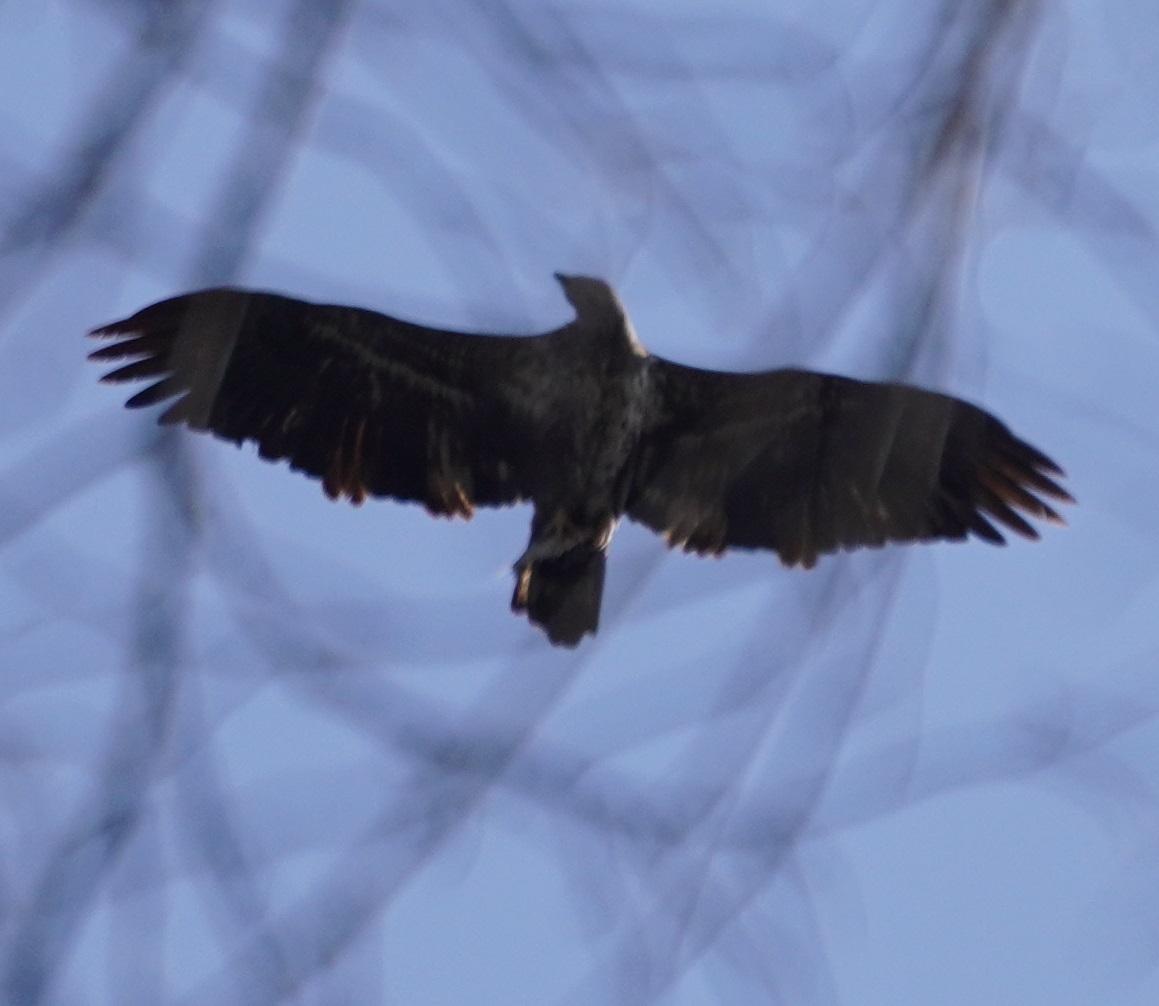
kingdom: Animalia
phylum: Chordata
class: Aves
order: Accipitriformes
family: Accipitridae
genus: Haliaeetus
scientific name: Haliaeetus leucocephalus
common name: Bald eagle
